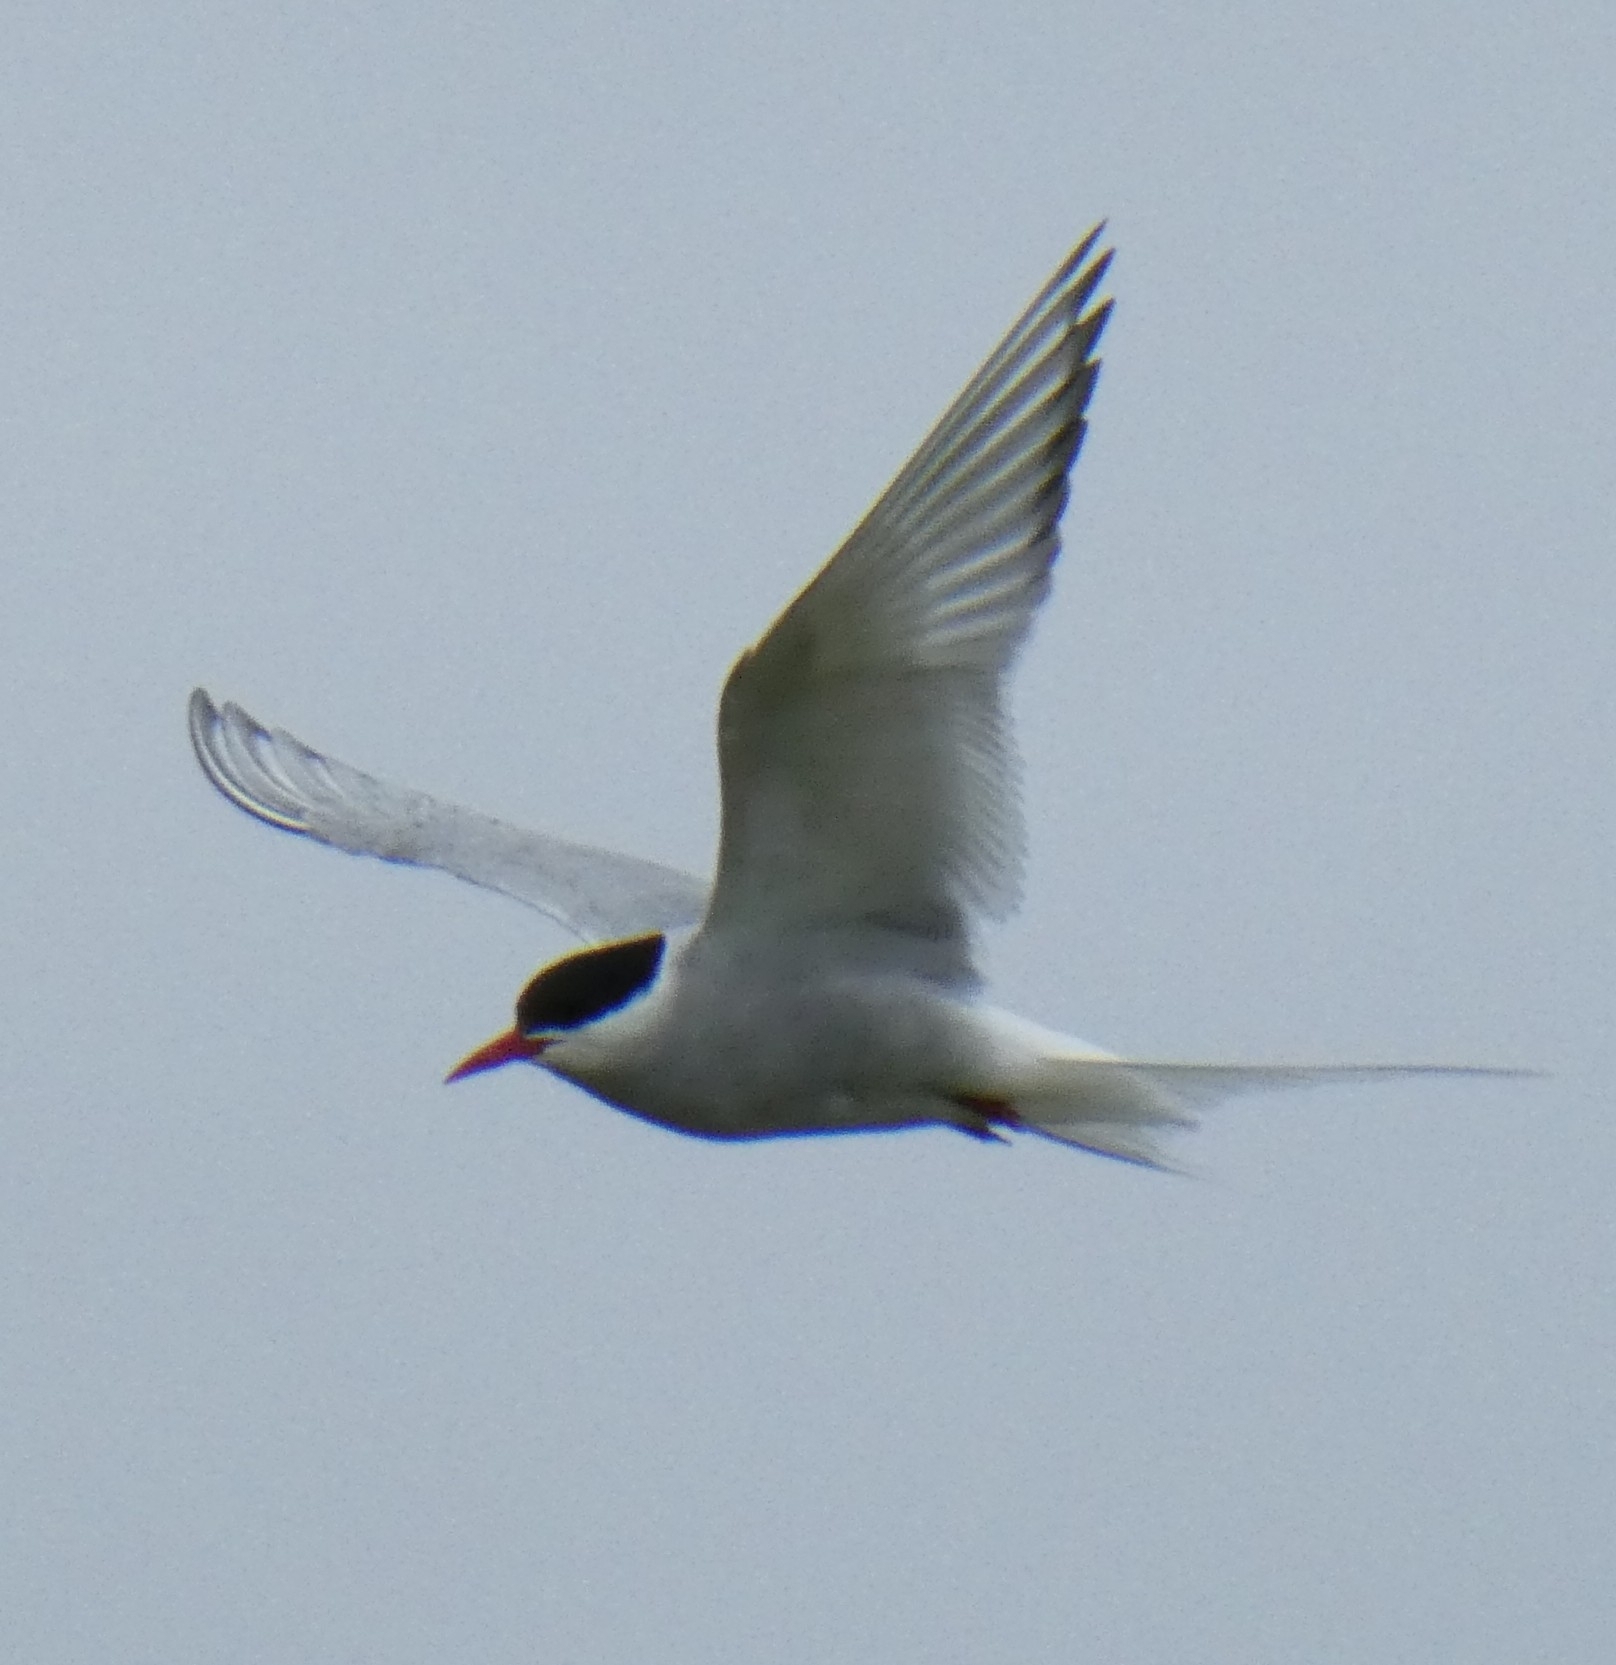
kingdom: Animalia
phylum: Chordata
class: Aves
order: Charadriiformes
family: Laridae
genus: Sterna
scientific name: Sterna paradisaea
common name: Arctic tern
